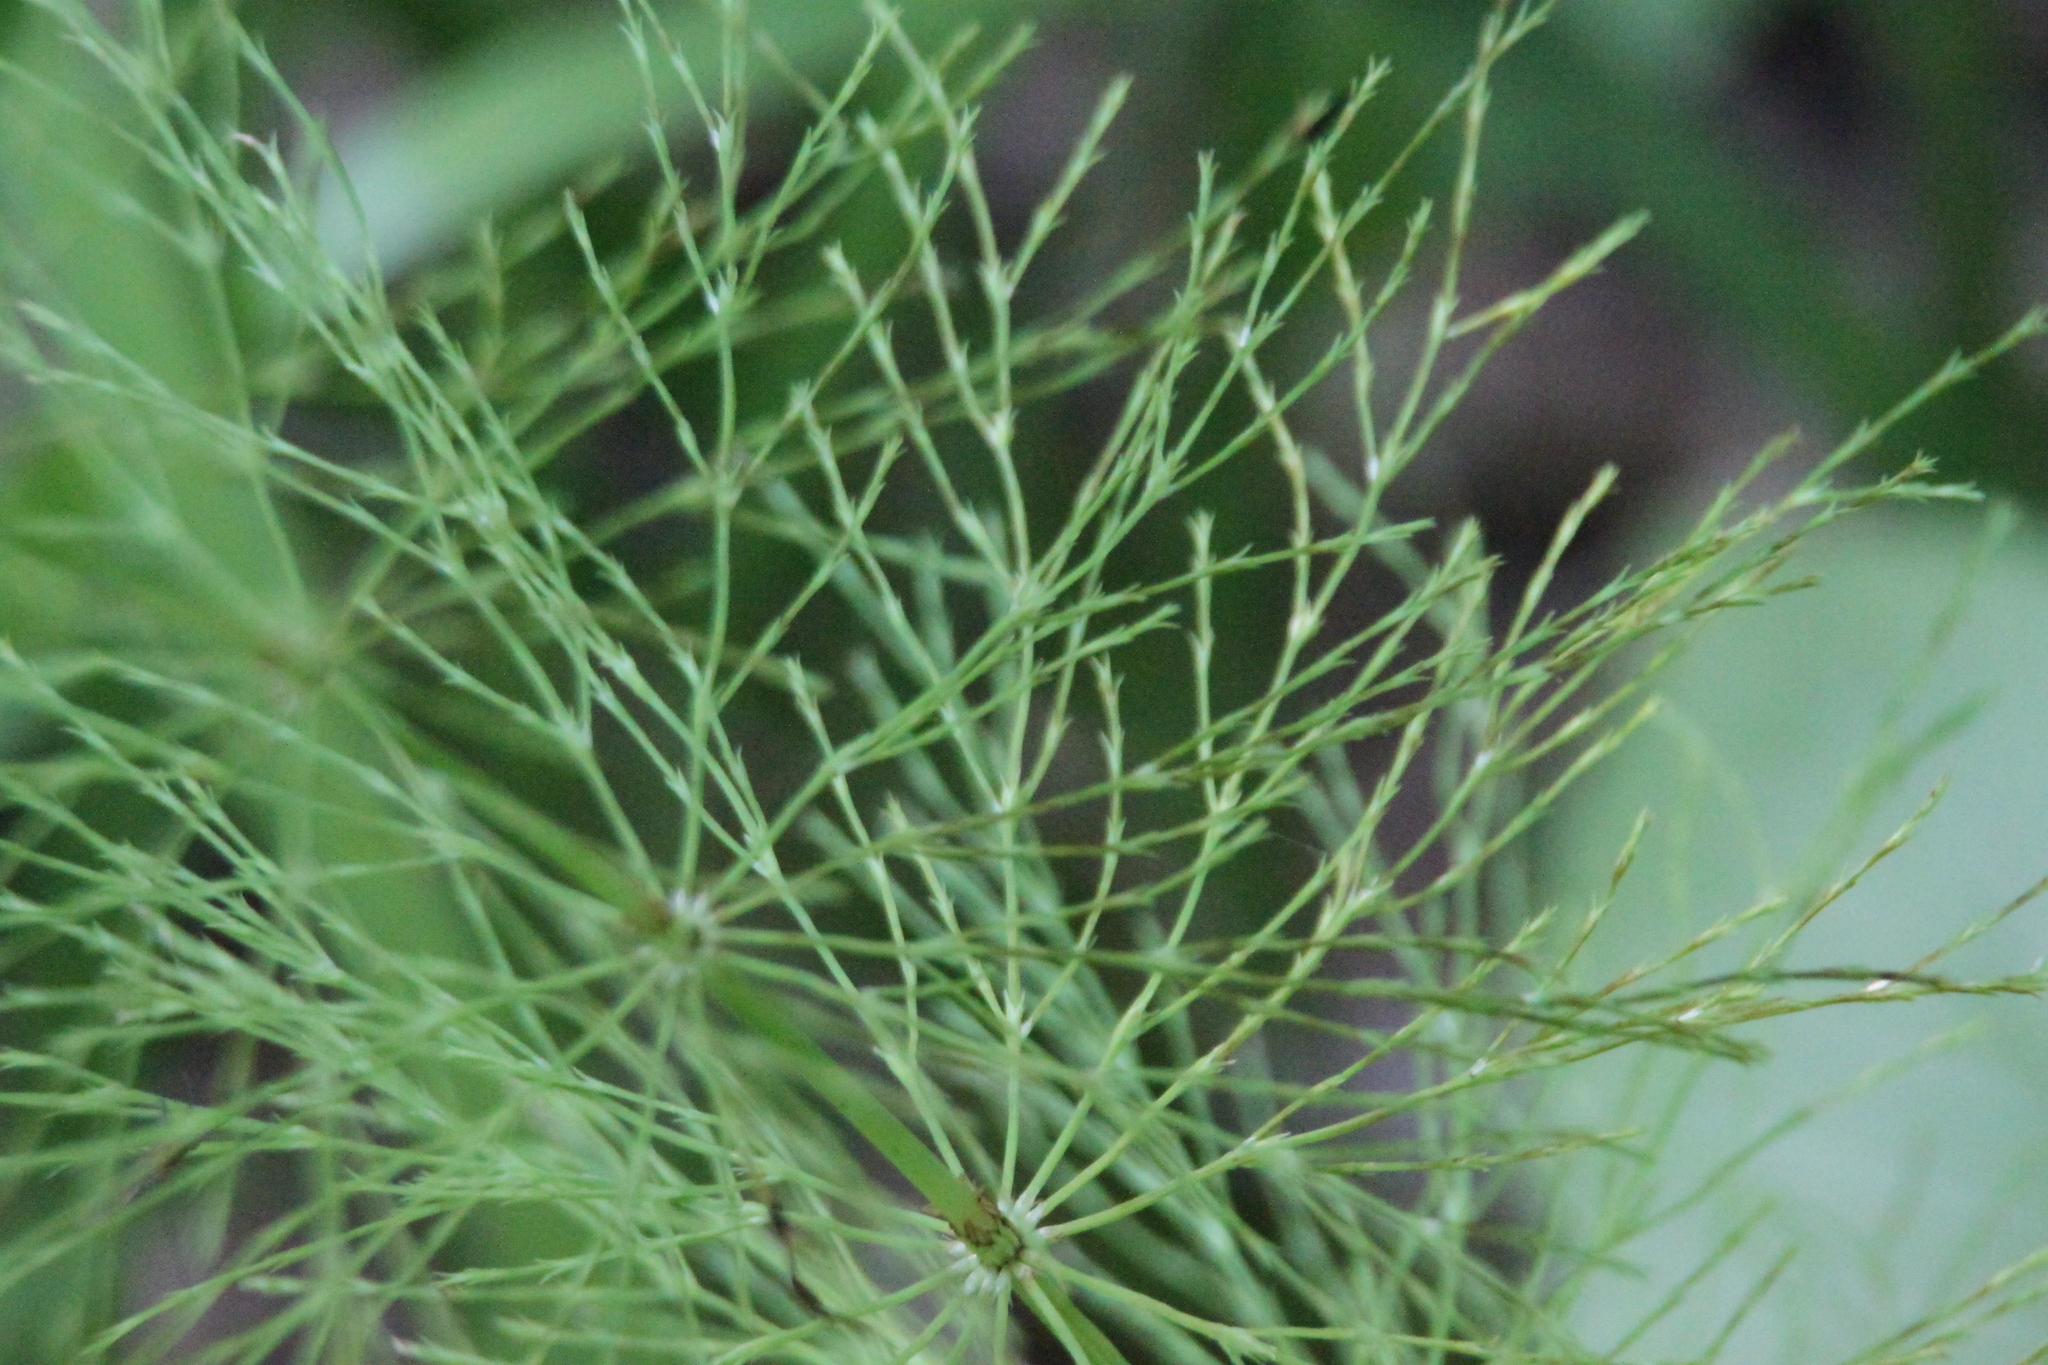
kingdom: Plantae
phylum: Tracheophyta
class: Polypodiopsida
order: Equisetales
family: Equisetaceae
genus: Equisetum
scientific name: Equisetum sylvaticum
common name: Wood horsetail
